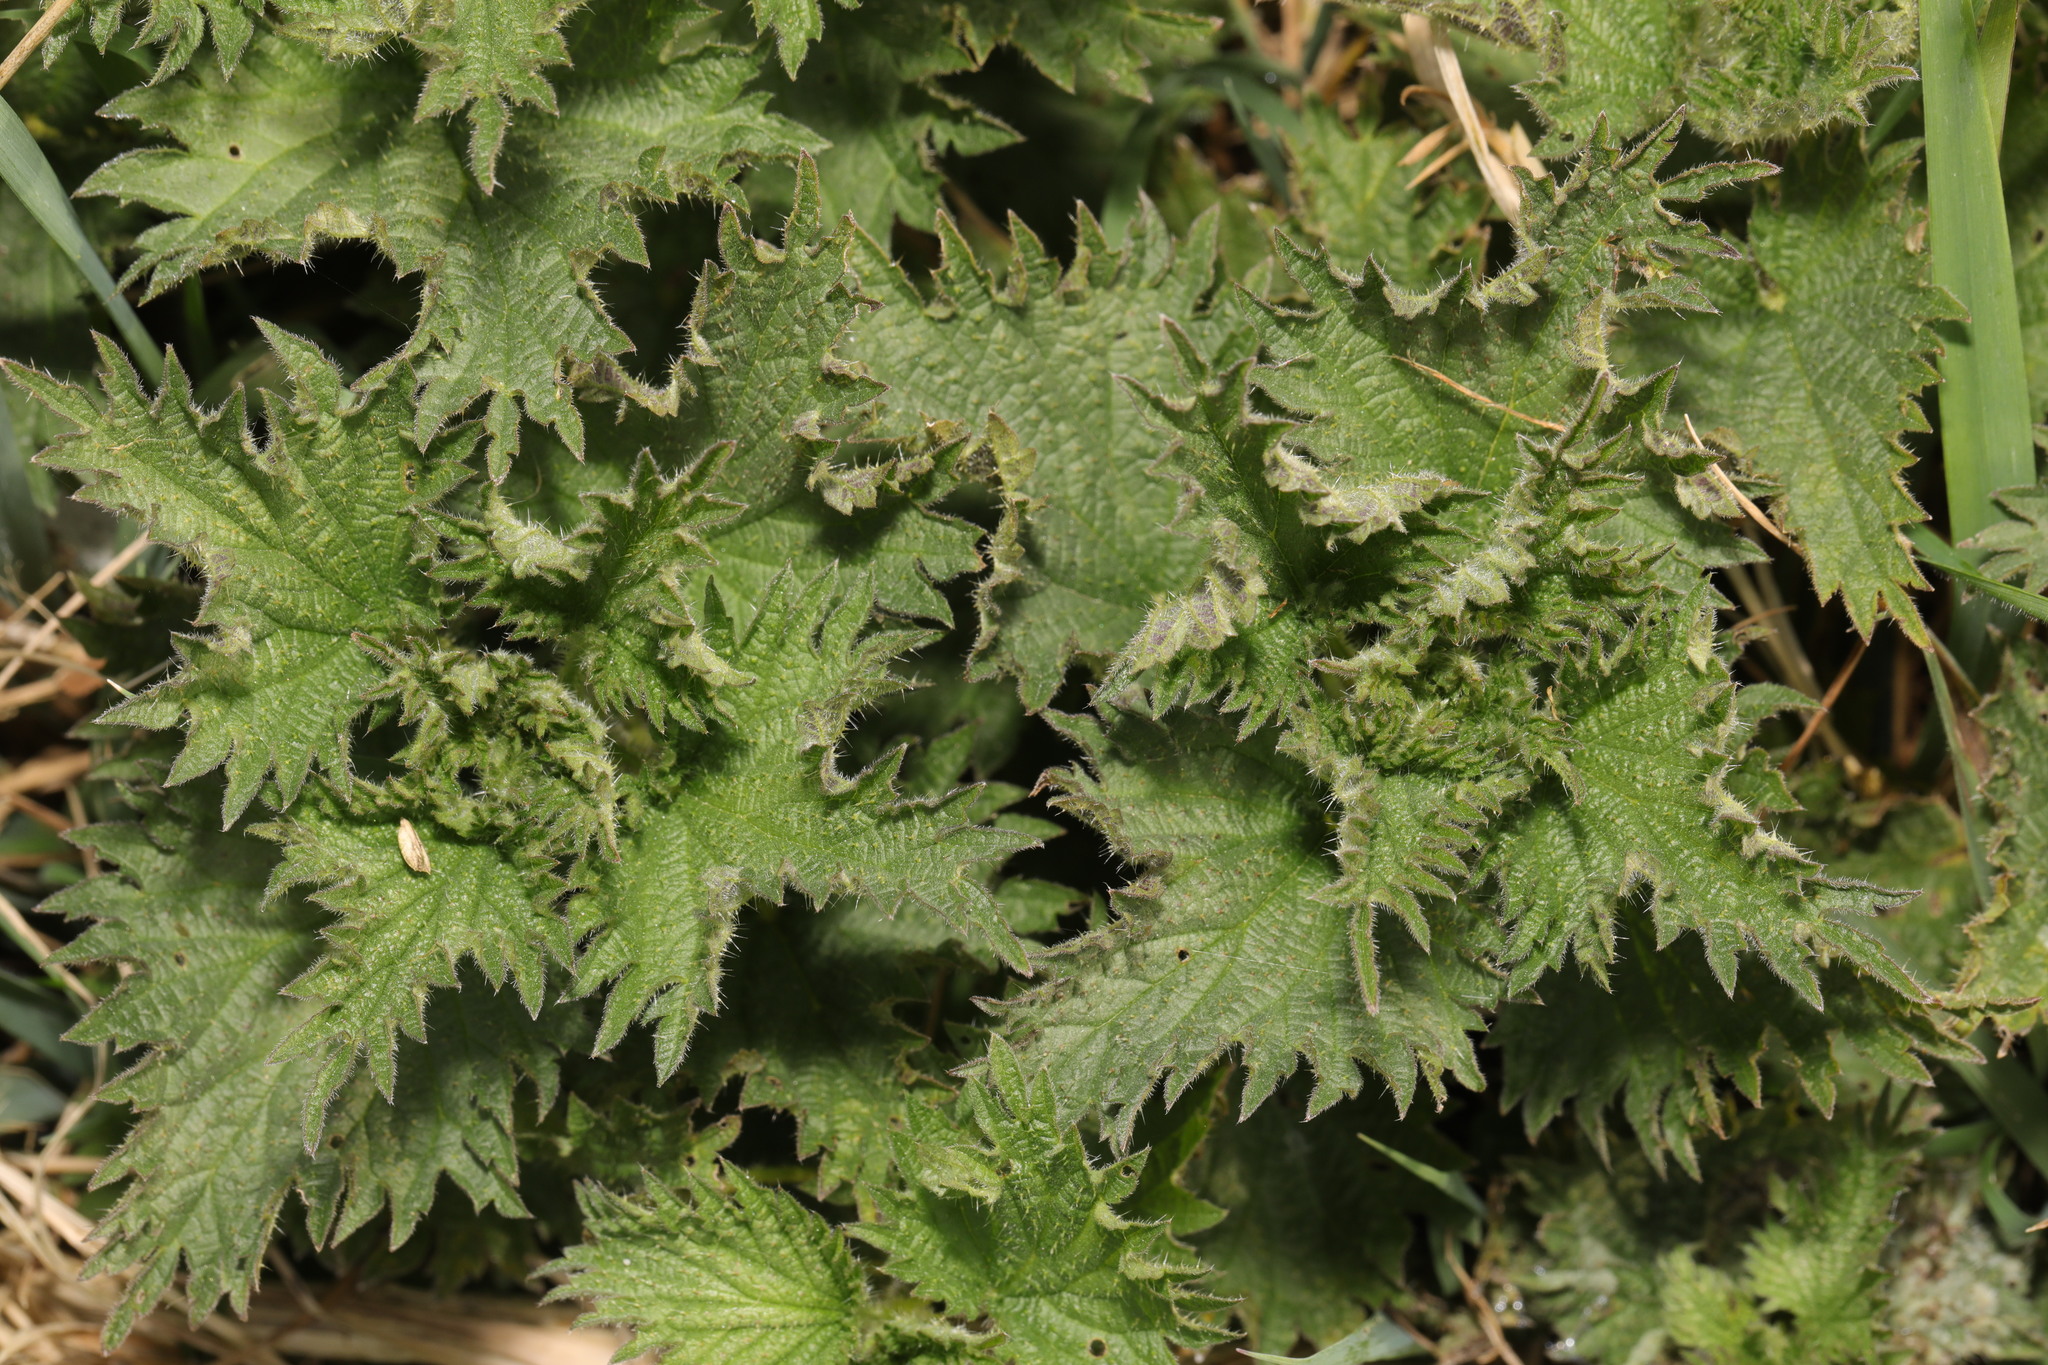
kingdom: Plantae
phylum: Tracheophyta
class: Magnoliopsida
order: Rosales
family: Urticaceae
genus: Urtica
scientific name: Urtica dioica
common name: Common nettle
